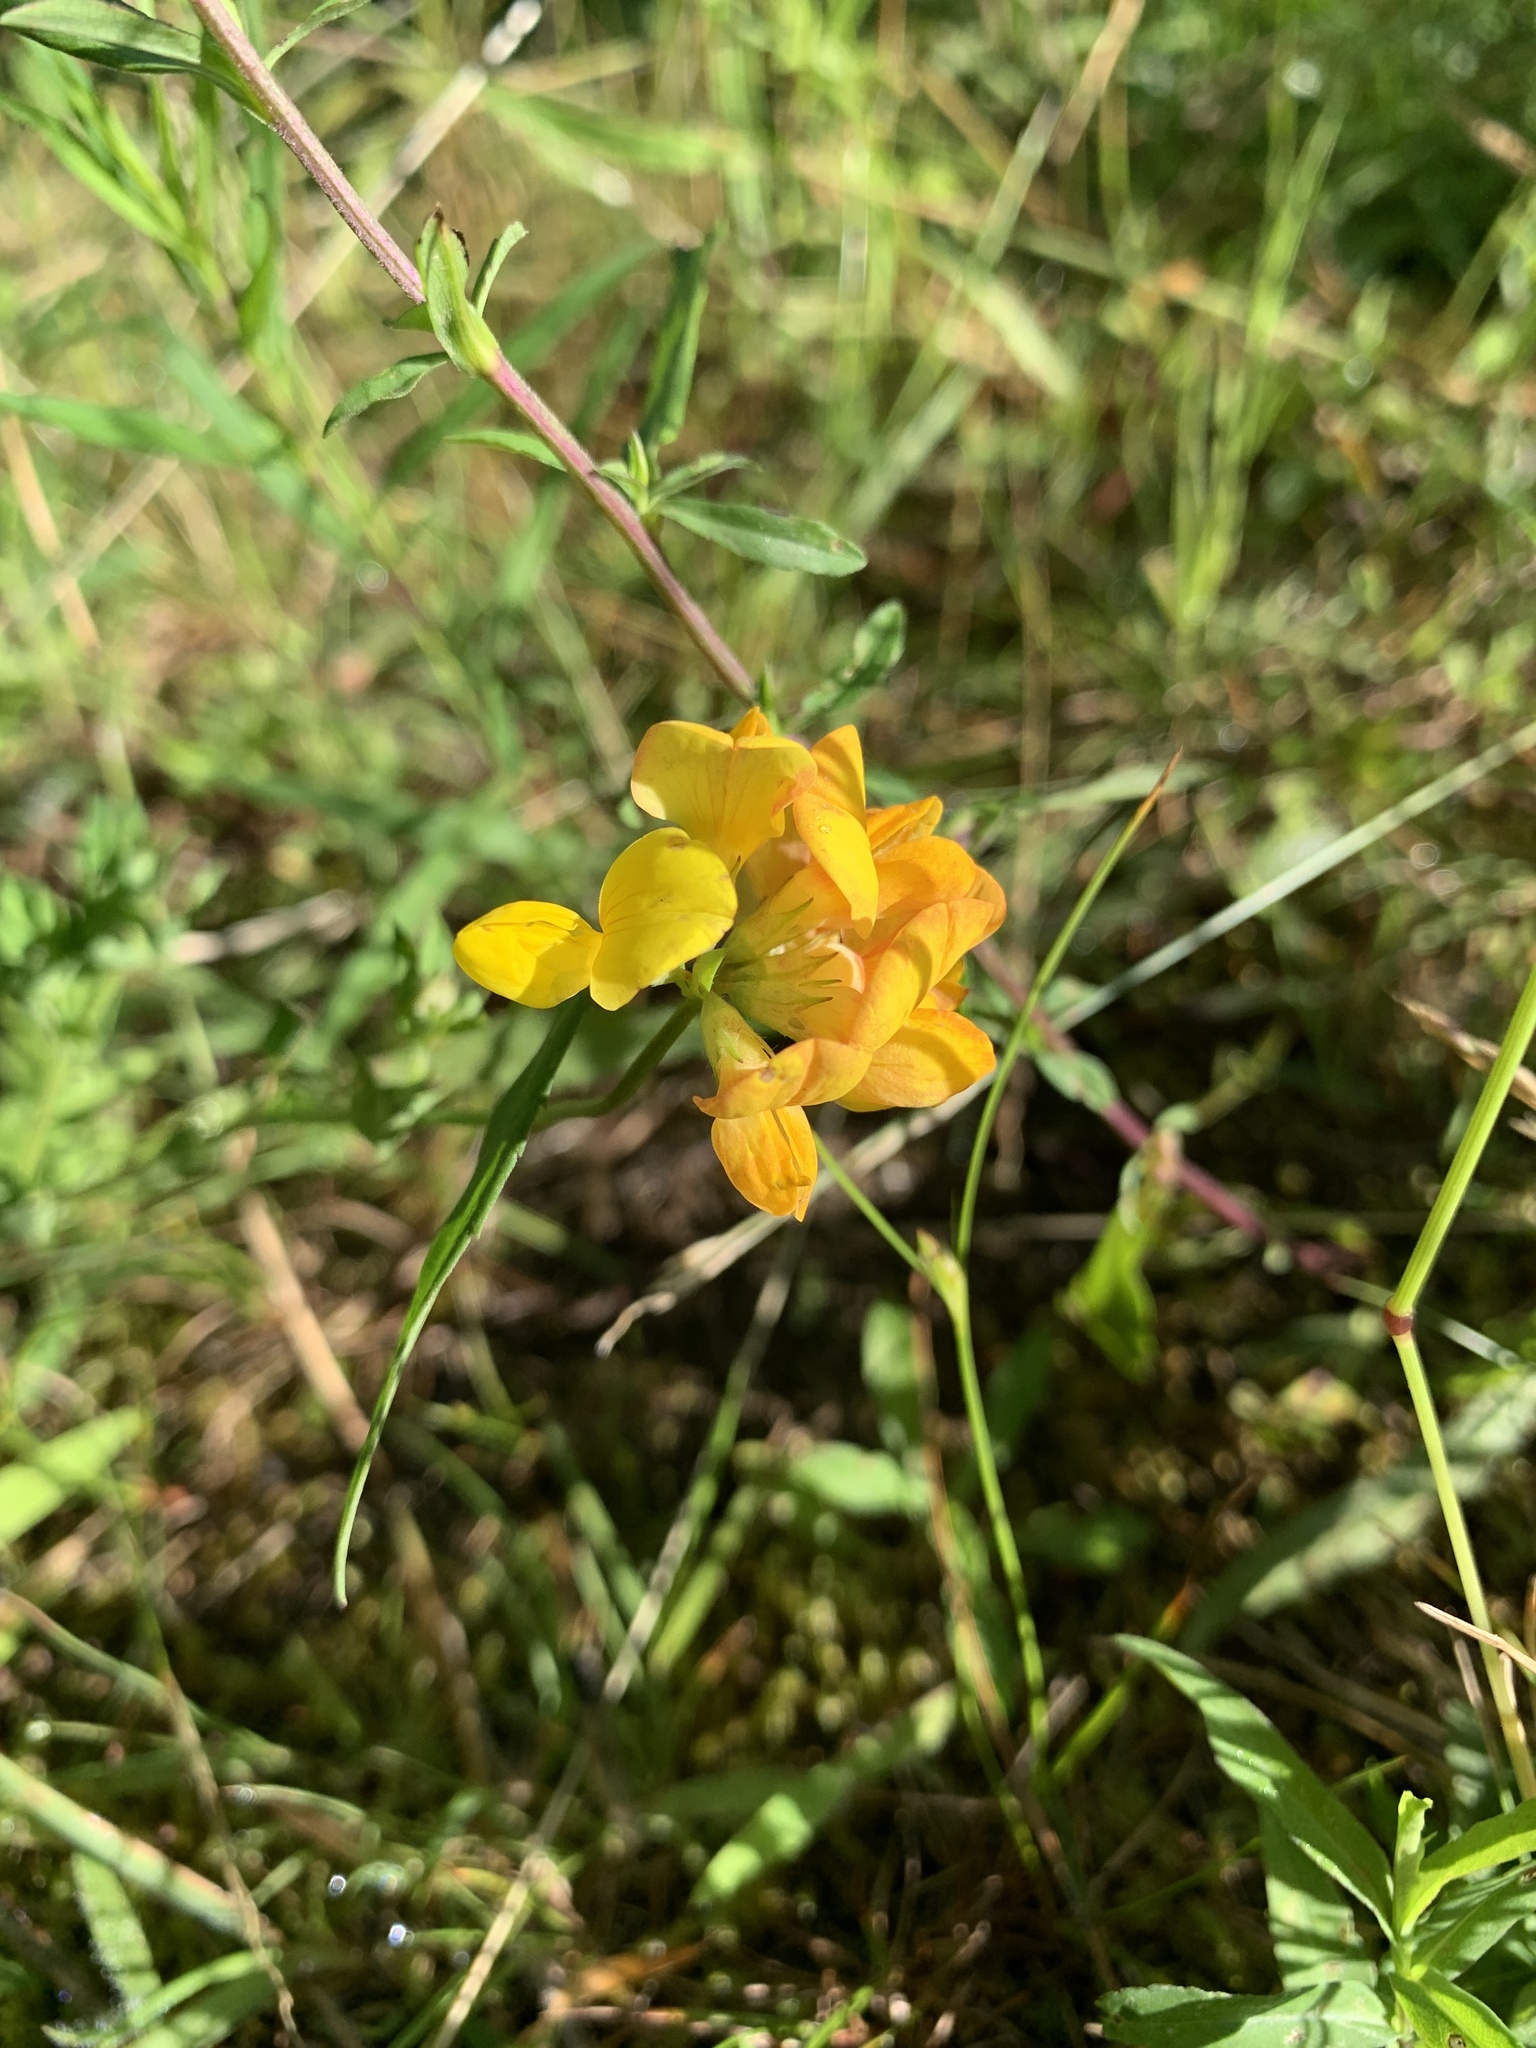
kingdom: Plantae
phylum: Tracheophyta
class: Magnoliopsida
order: Fabales
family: Fabaceae
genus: Lotus
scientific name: Lotus corniculatus
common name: Common bird's-foot-trefoil
